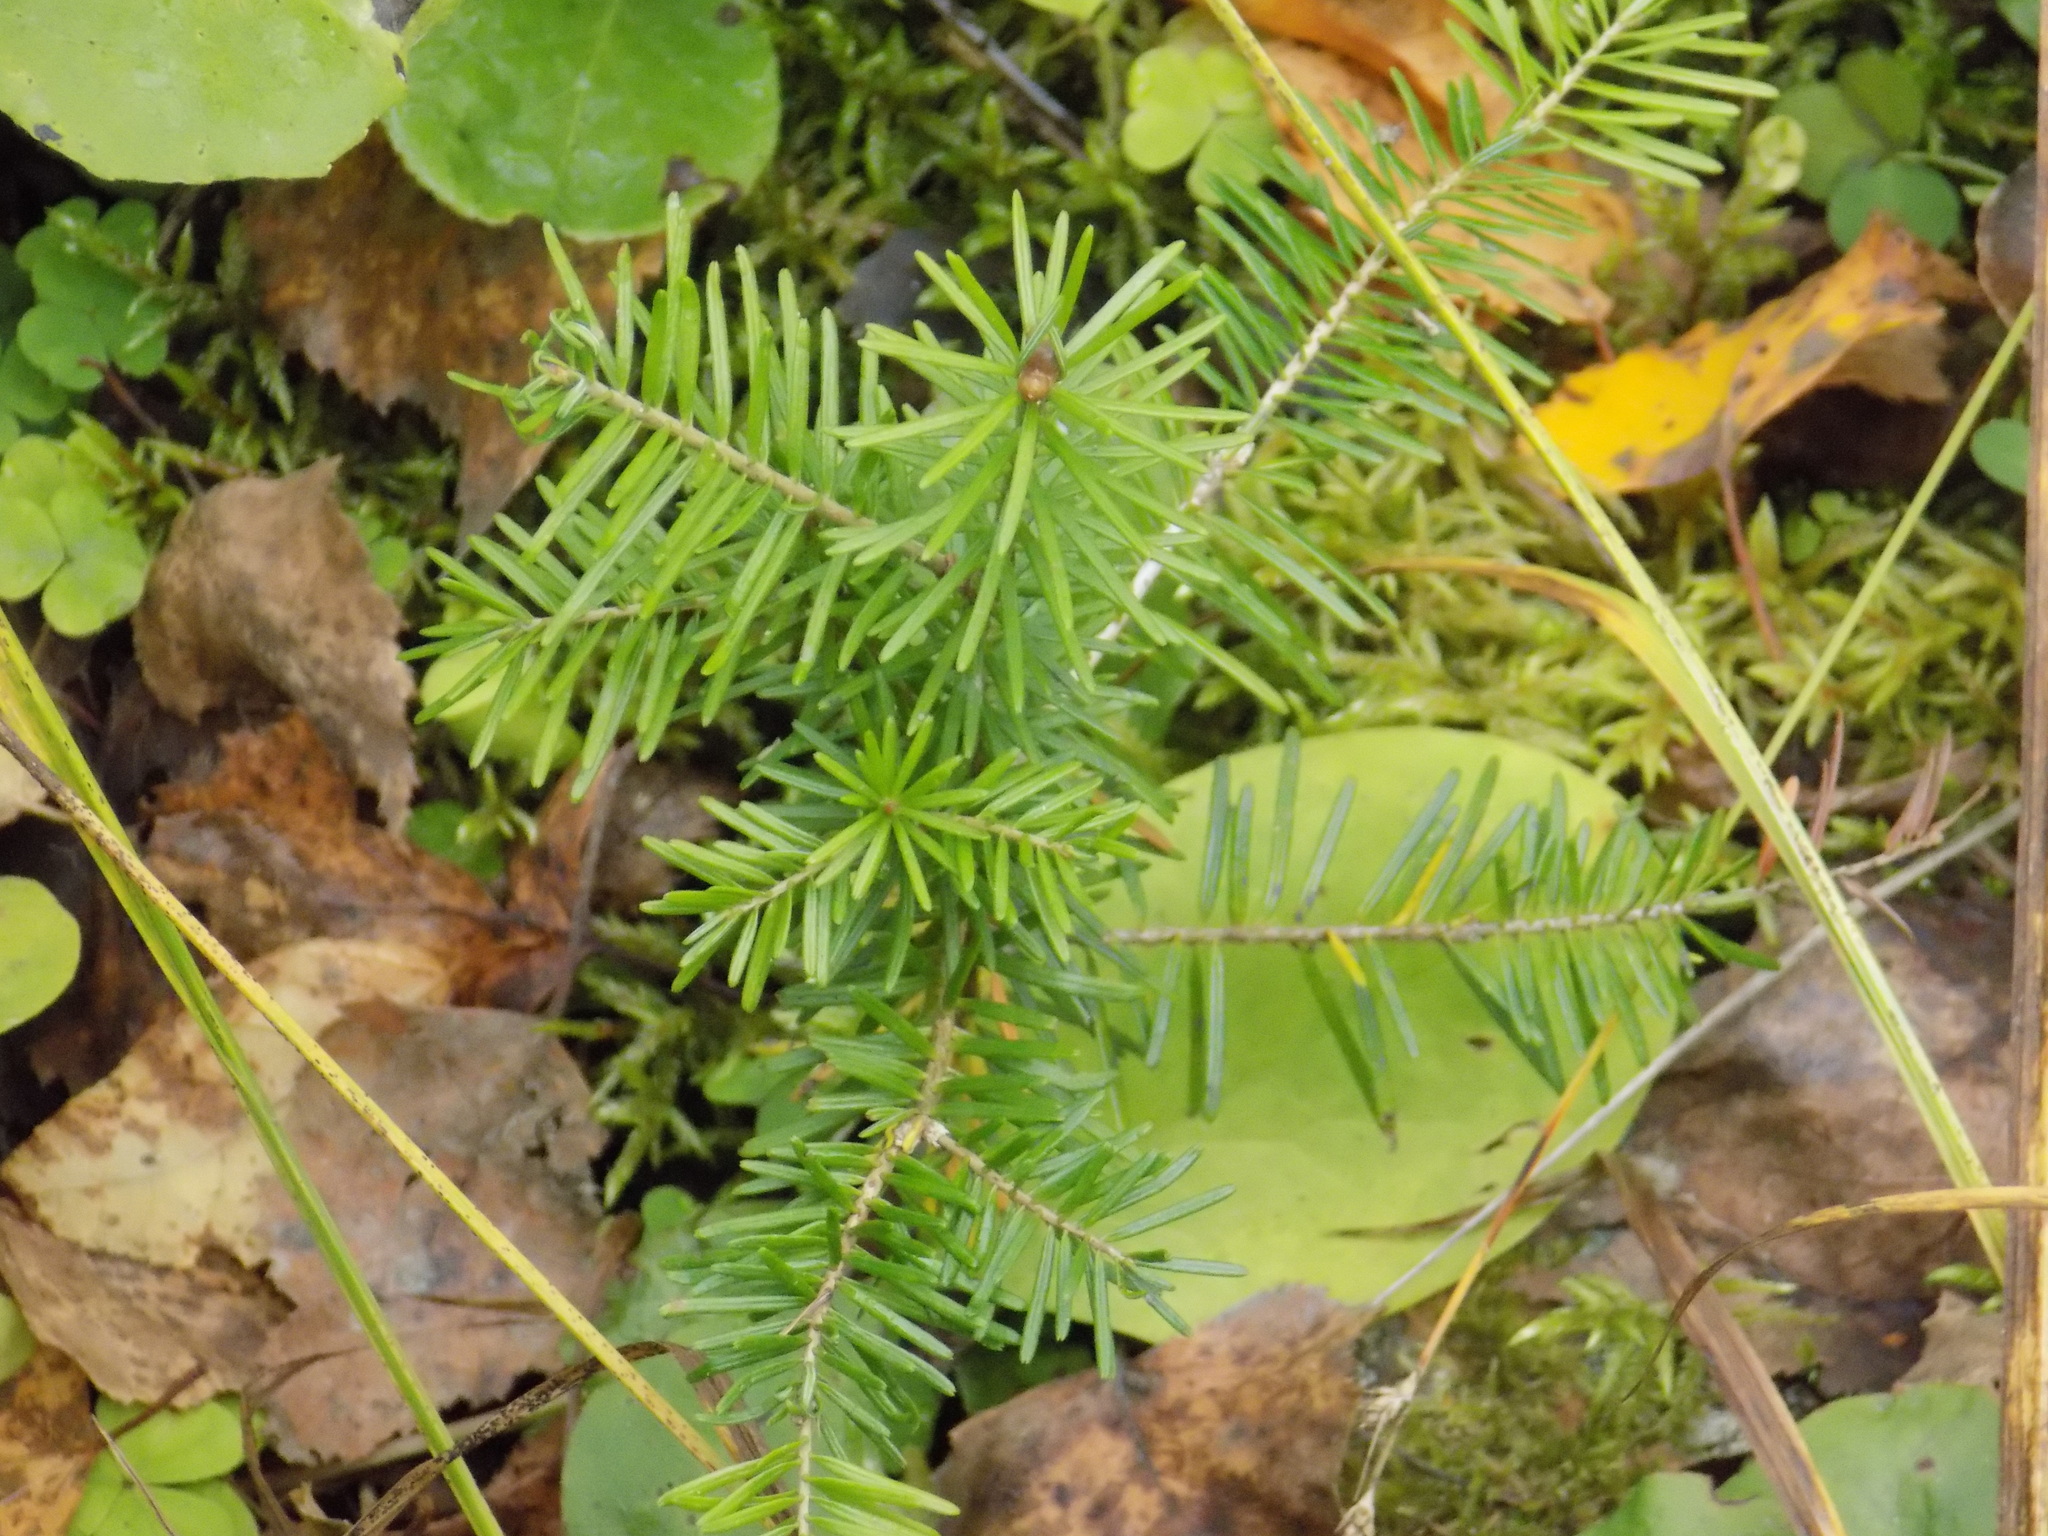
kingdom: Plantae
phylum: Tracheophyta
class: Pinopsida
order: Pinales
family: Pinaceae
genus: Abies
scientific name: Abies sibirica
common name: Siberian fir
